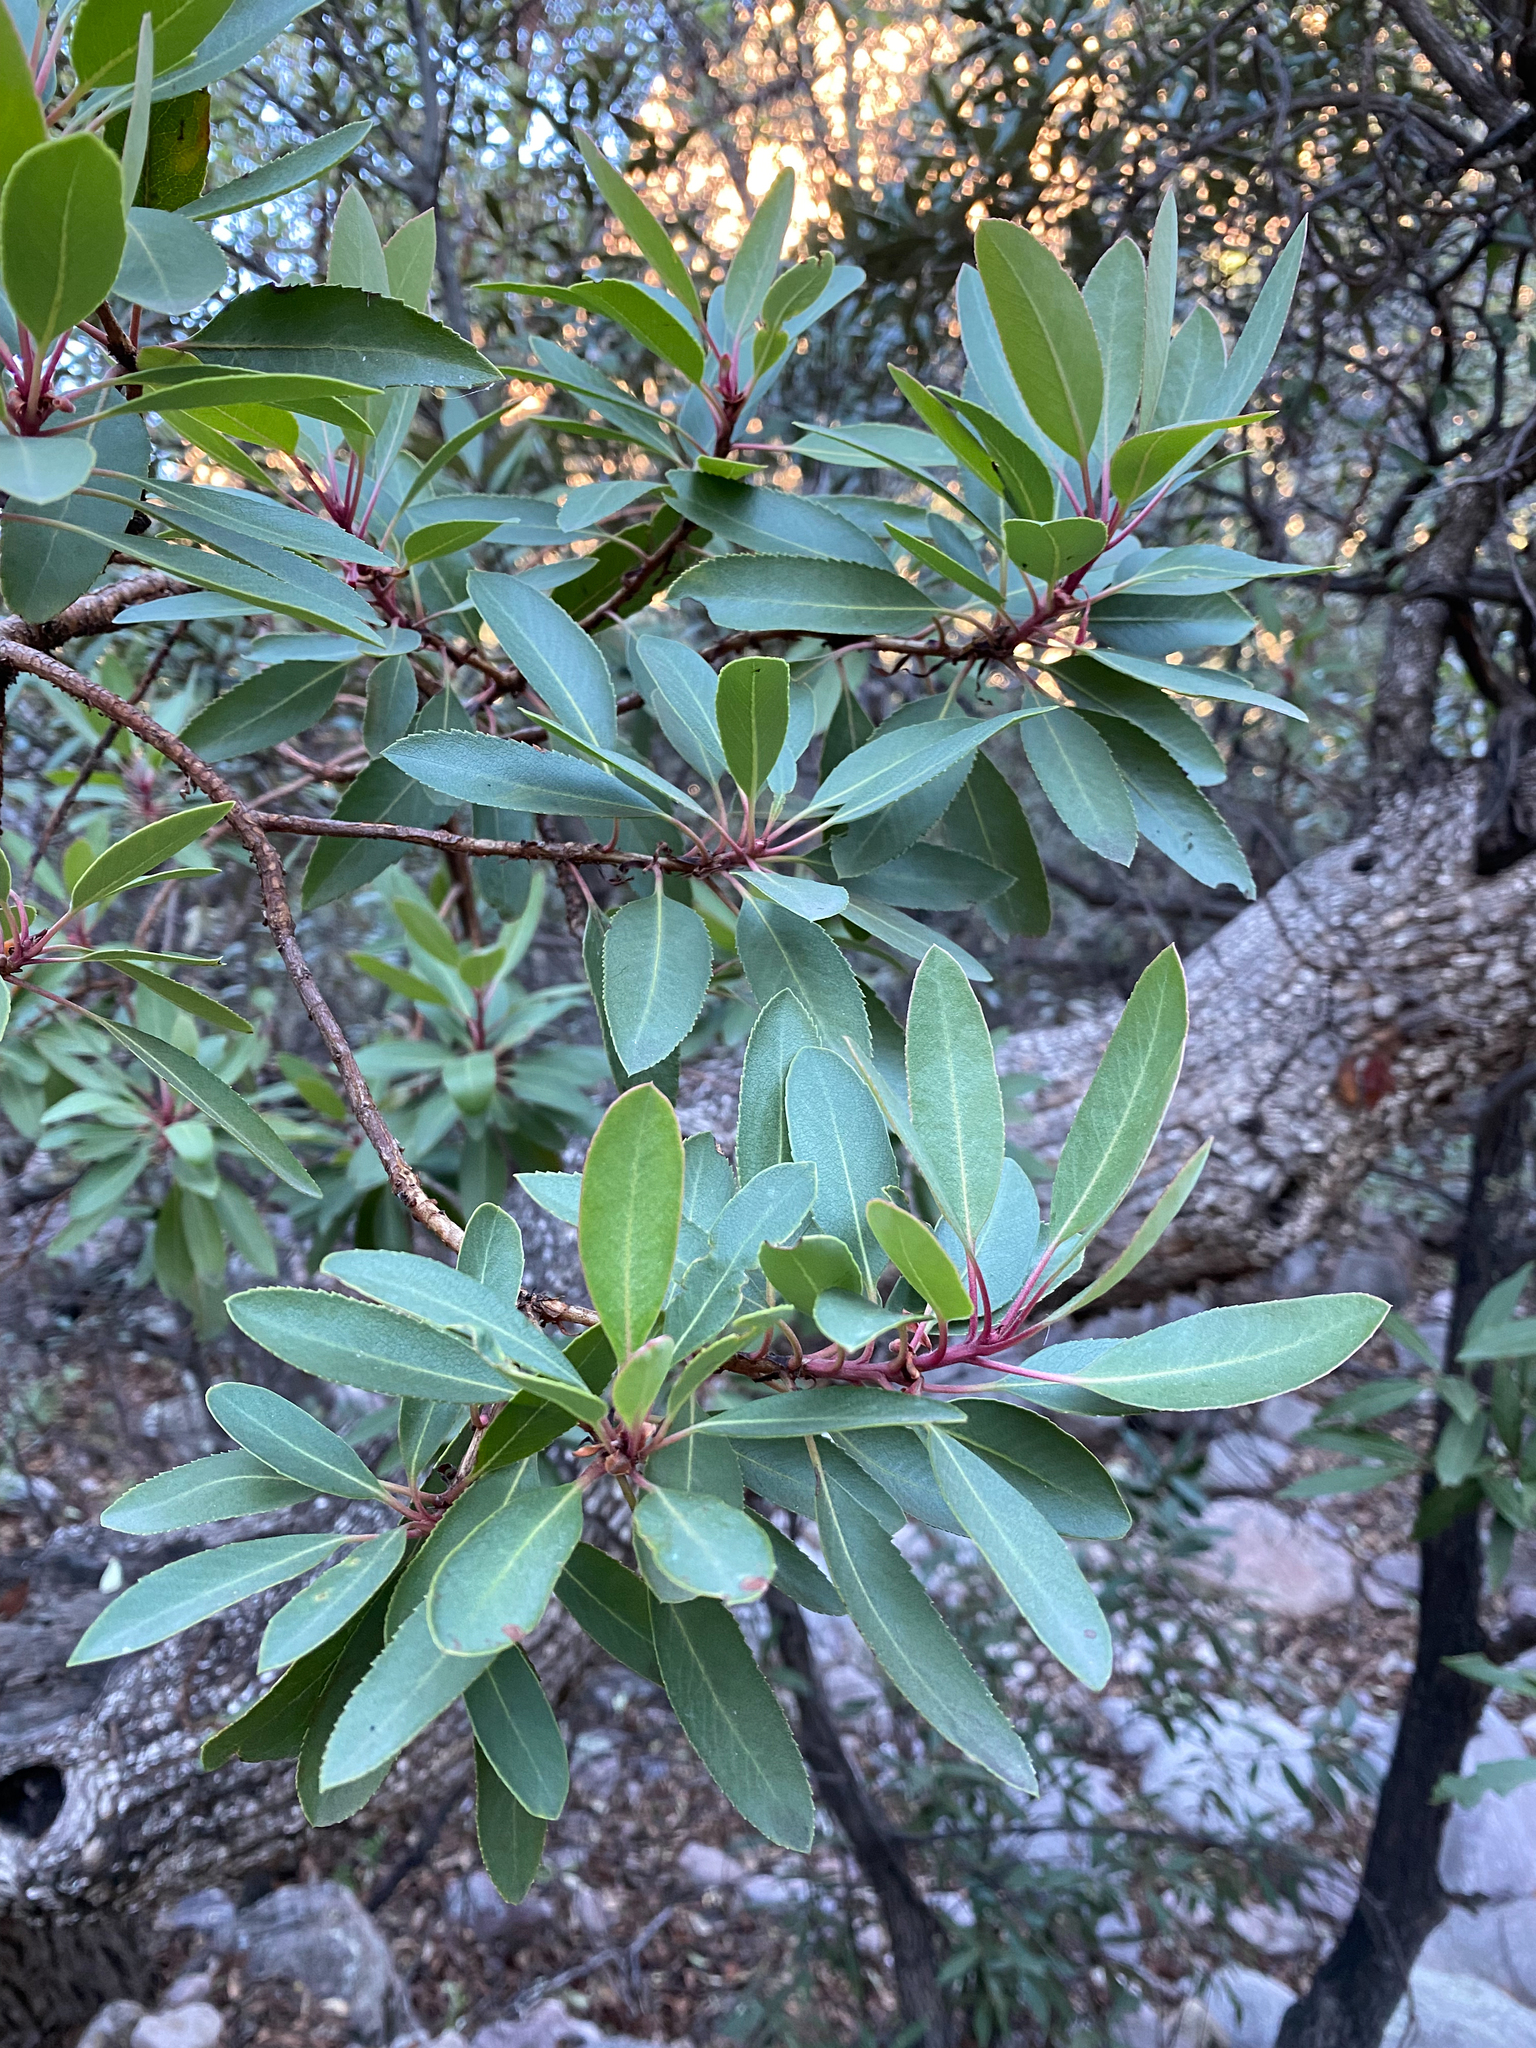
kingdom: Plantae
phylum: Tracheophyta
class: Magnoliopsida
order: Ericales
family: Ericaceae
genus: Arbutus
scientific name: Arbutus arizonica
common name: Arizona madrone
